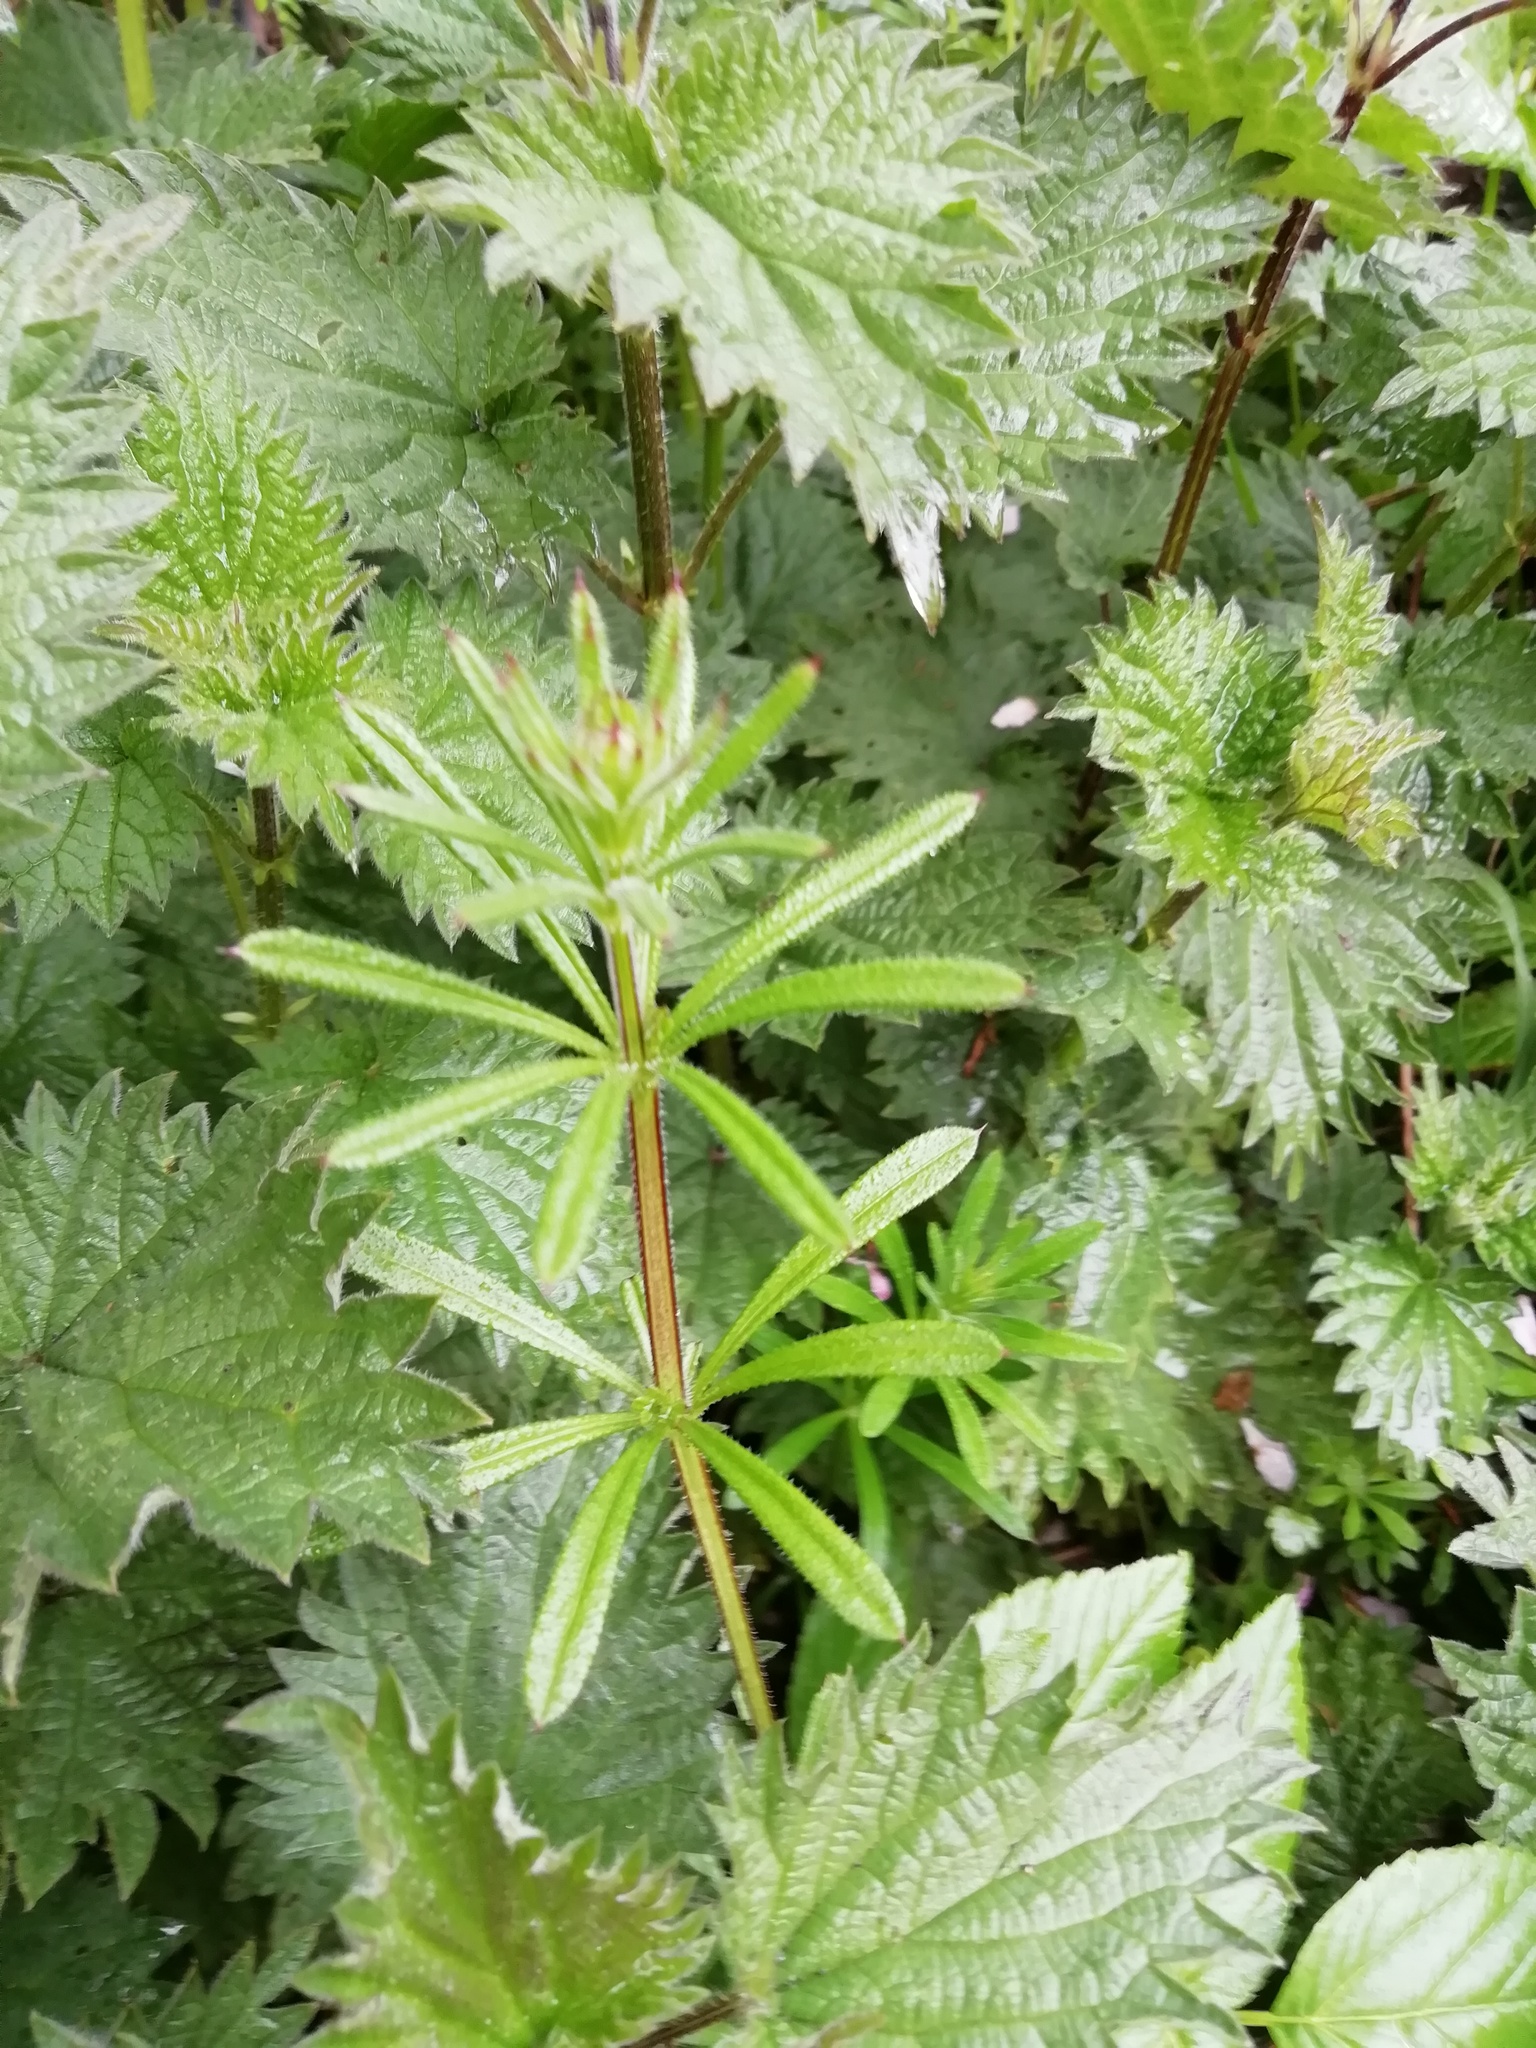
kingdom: Plantae
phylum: Tracheophyta
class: Magnoliopsida
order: Gentianales
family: Rubiaceae
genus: Galium
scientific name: Galium aparine
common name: Cleavers
